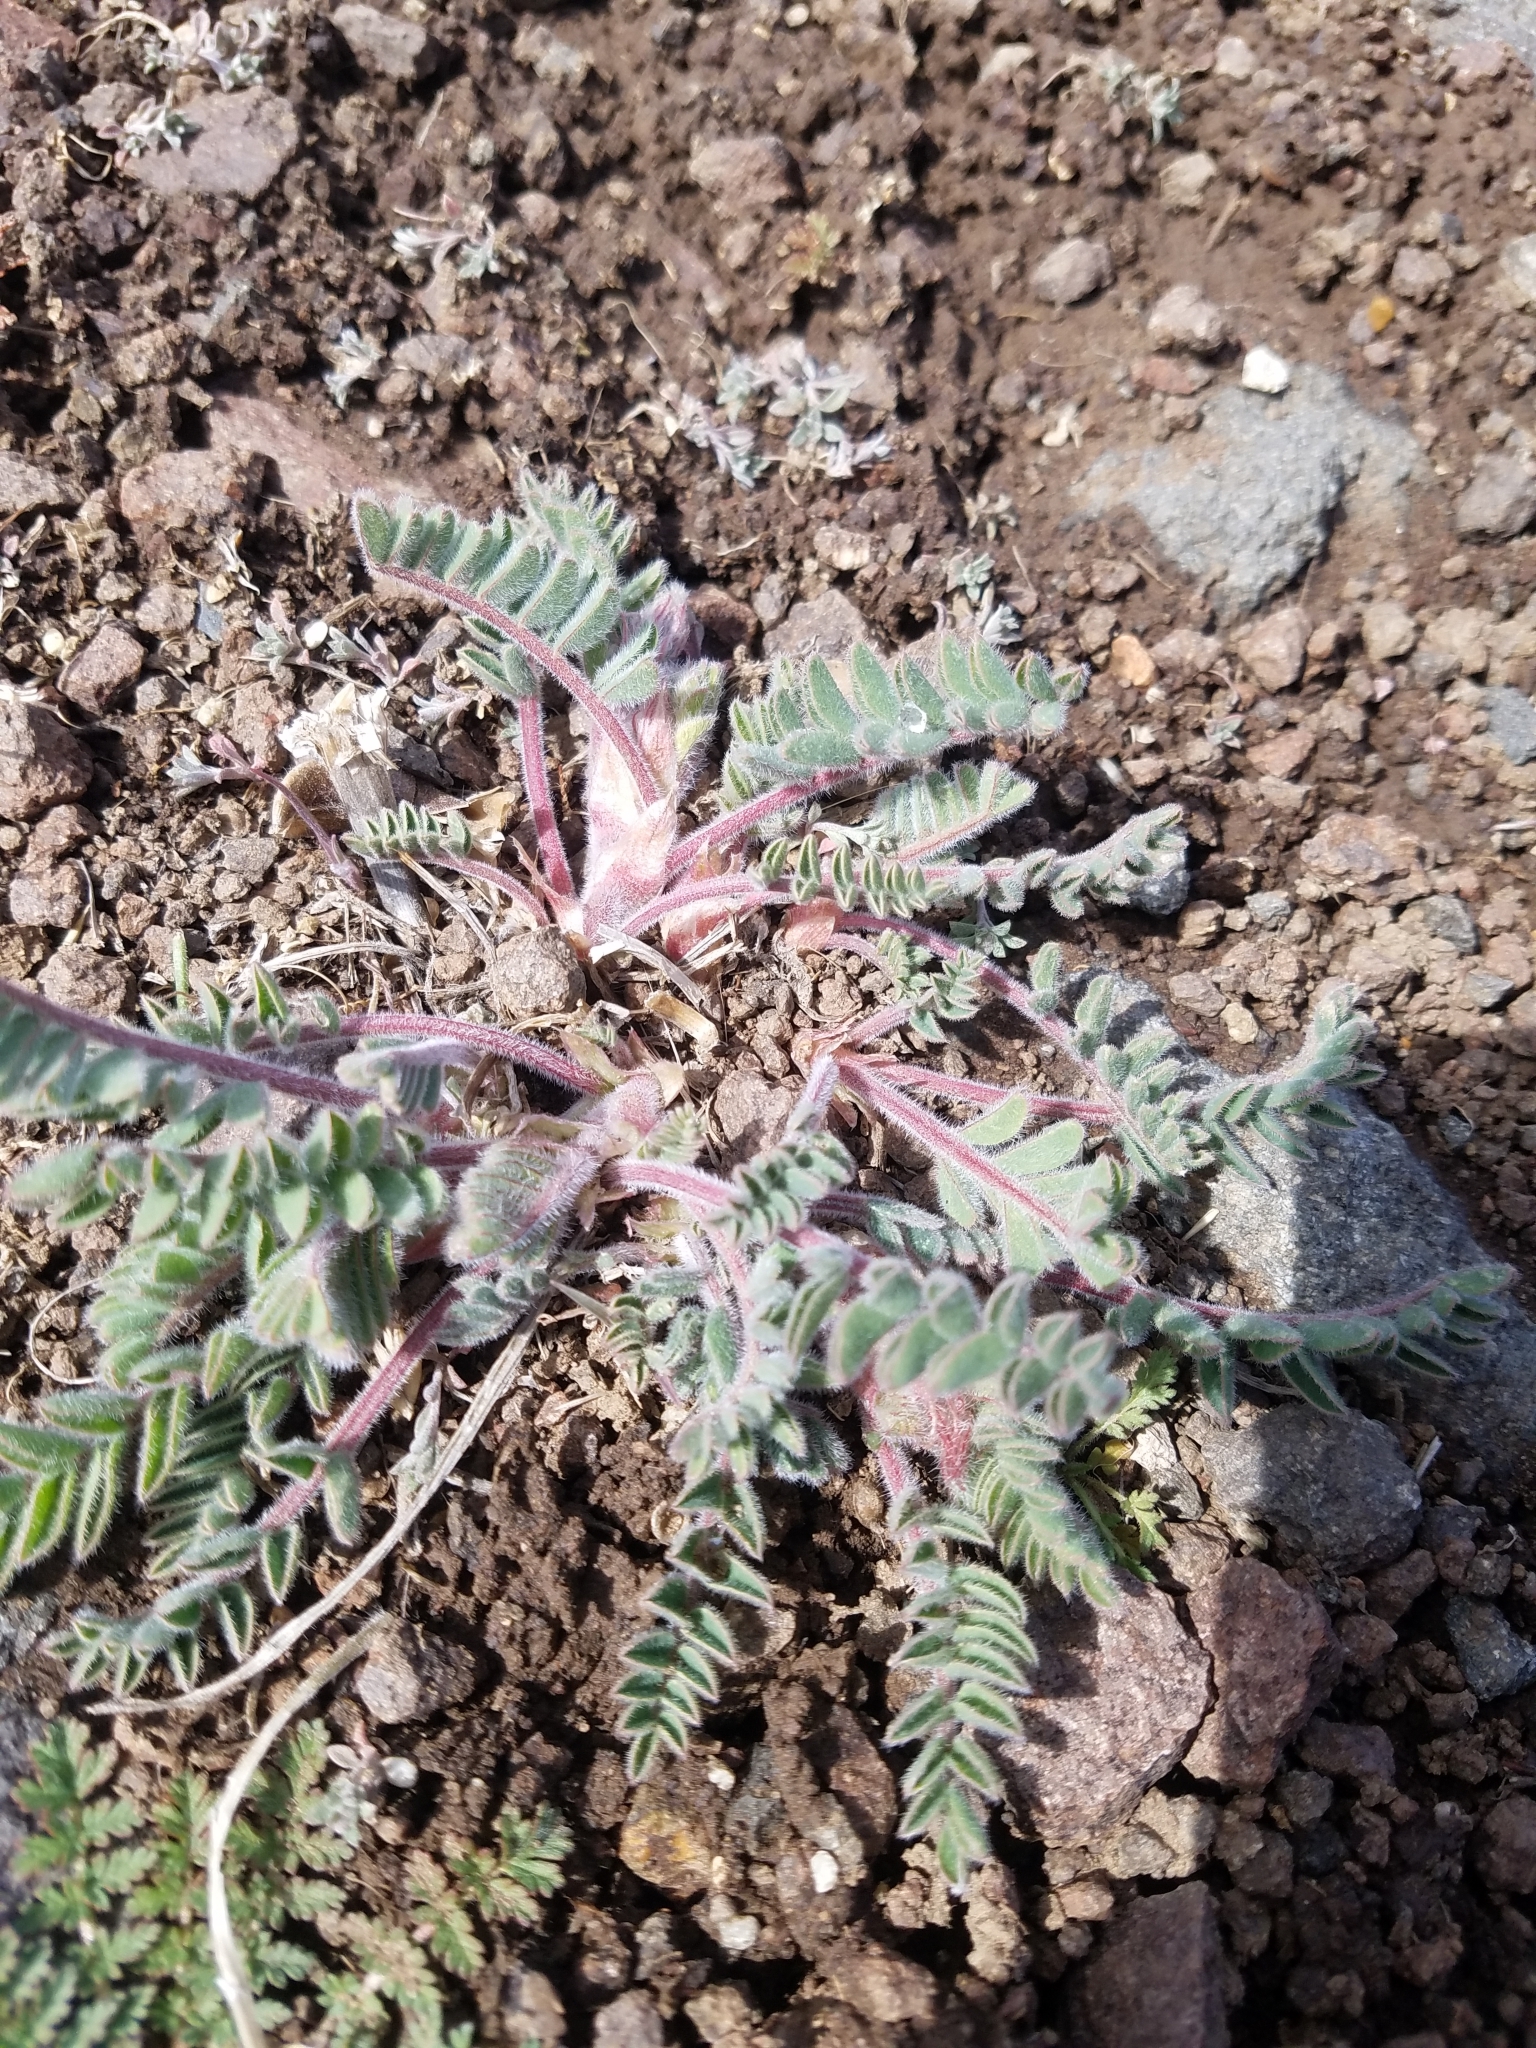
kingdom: Plantae
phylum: Tracheophyta
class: Magnoliopsida
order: Fabales
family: Fabaceae
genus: Astragalus
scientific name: Astragalus malacus
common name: Shaggy milk-vetch
